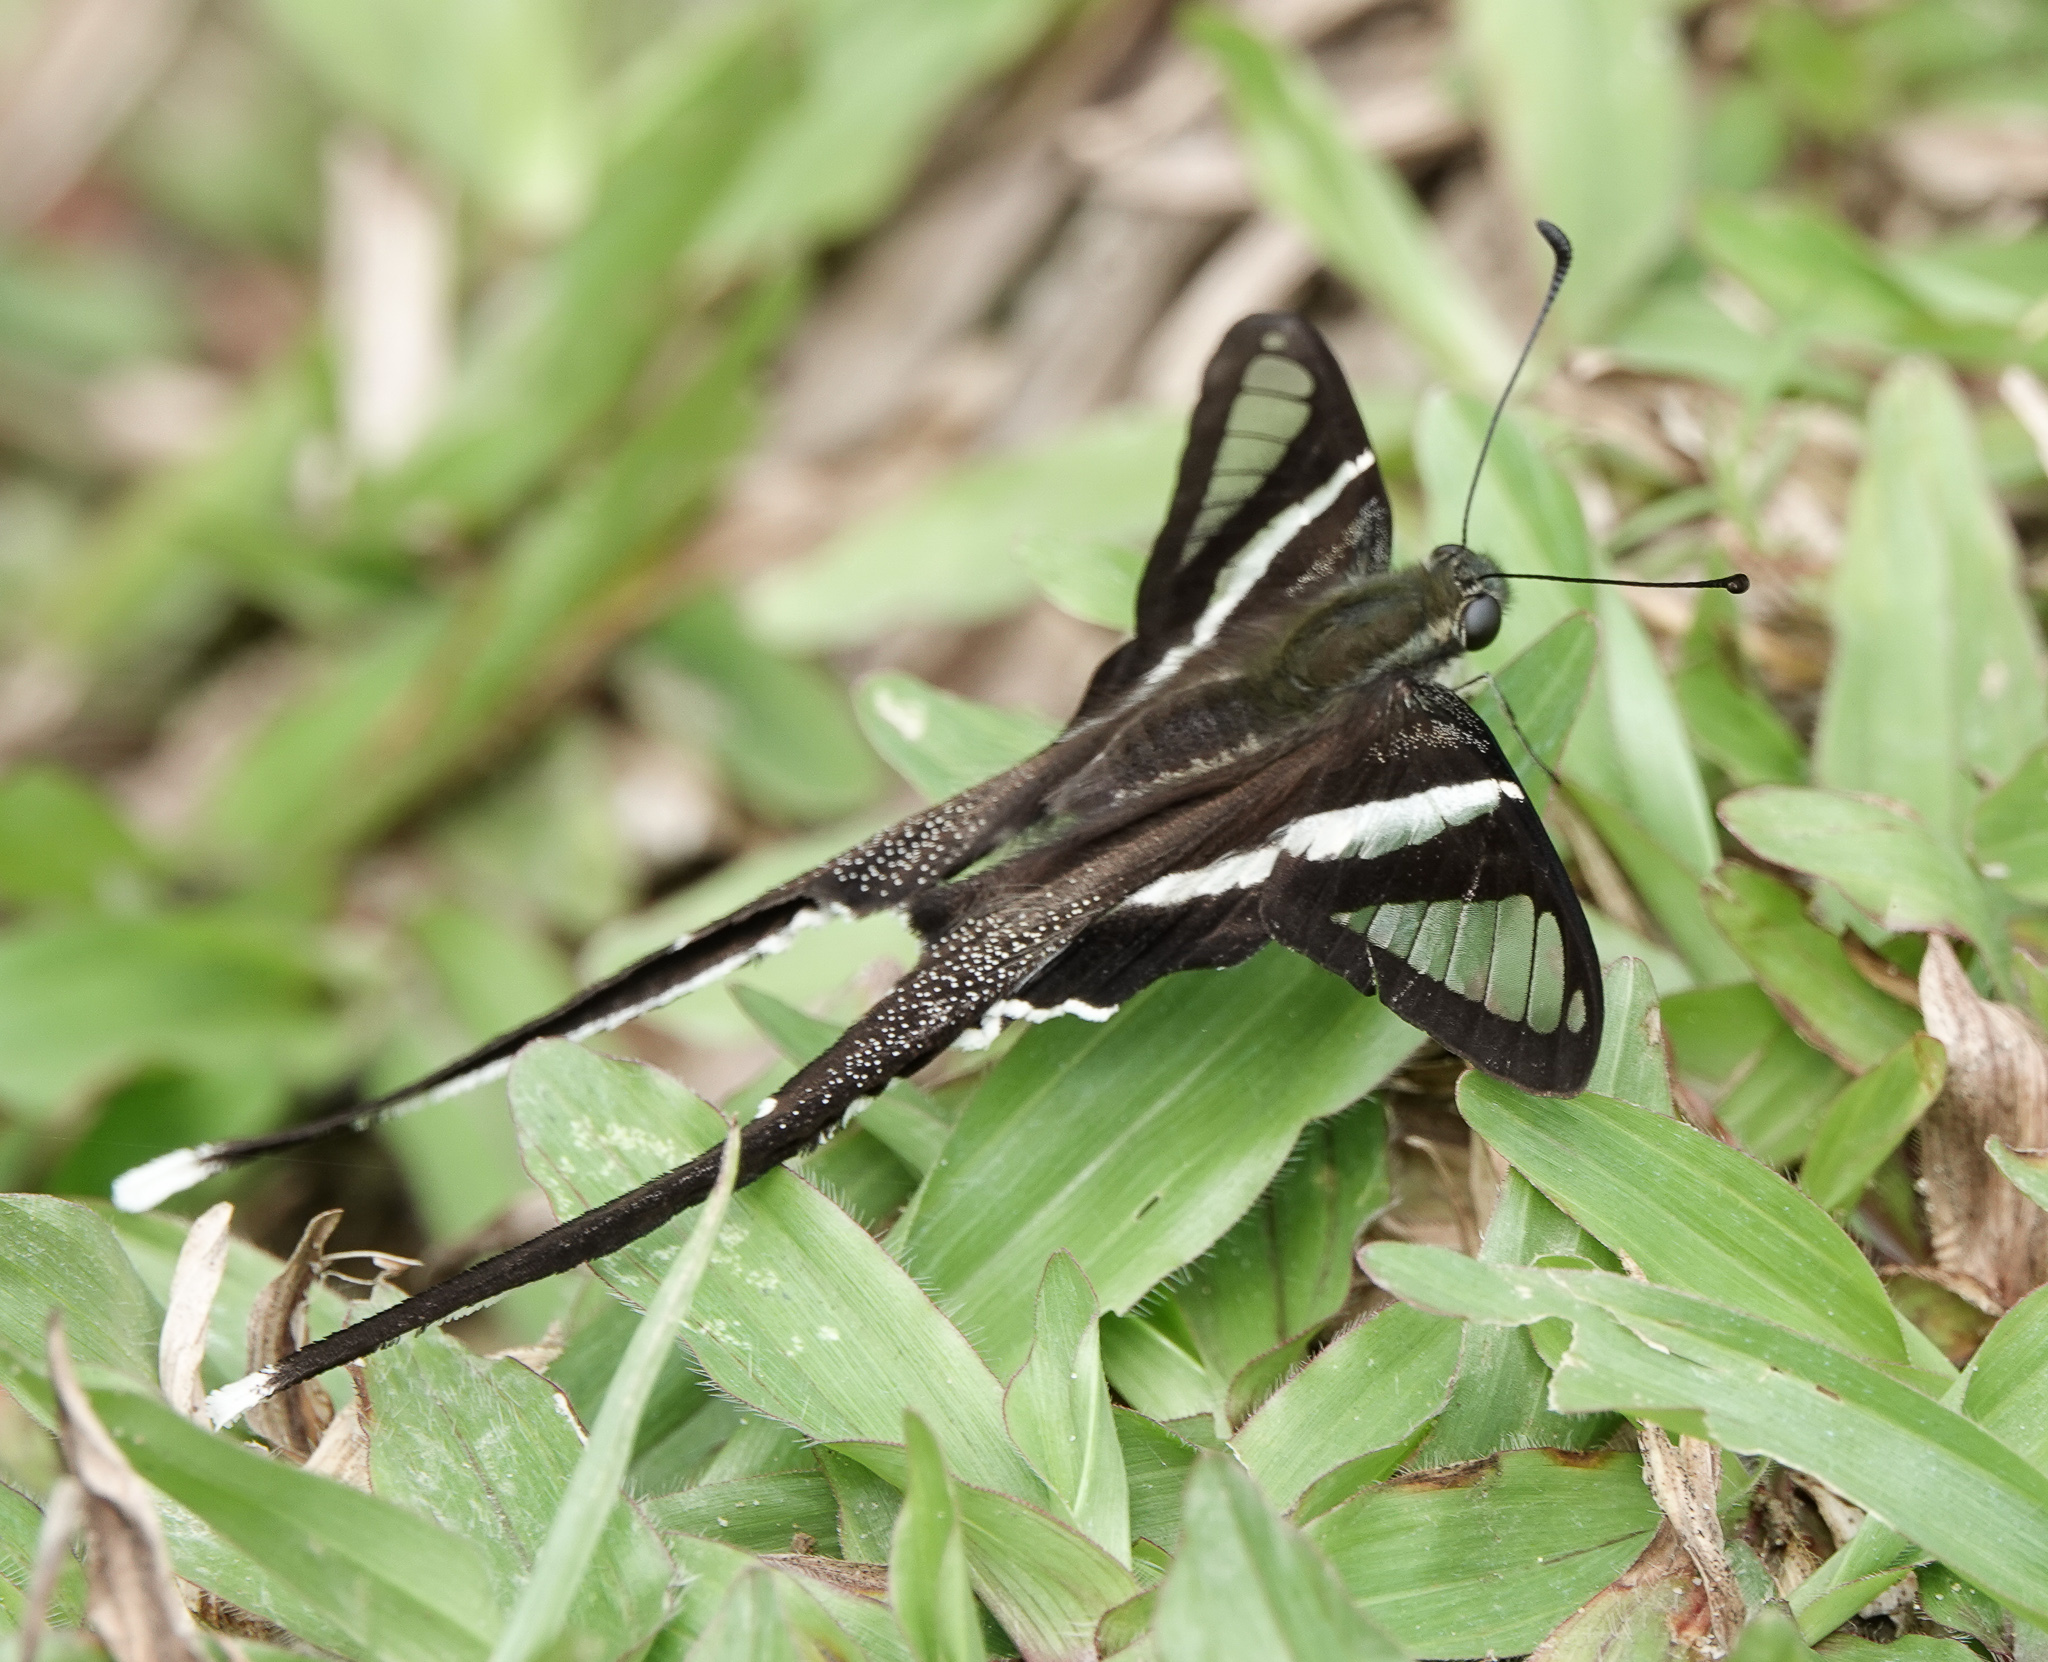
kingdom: Animalia
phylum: Arthropoda
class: Insecta
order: Lepidoptera
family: Papilionidae
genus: Lamproptera
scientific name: Lamproptera curius
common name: White dragontail
